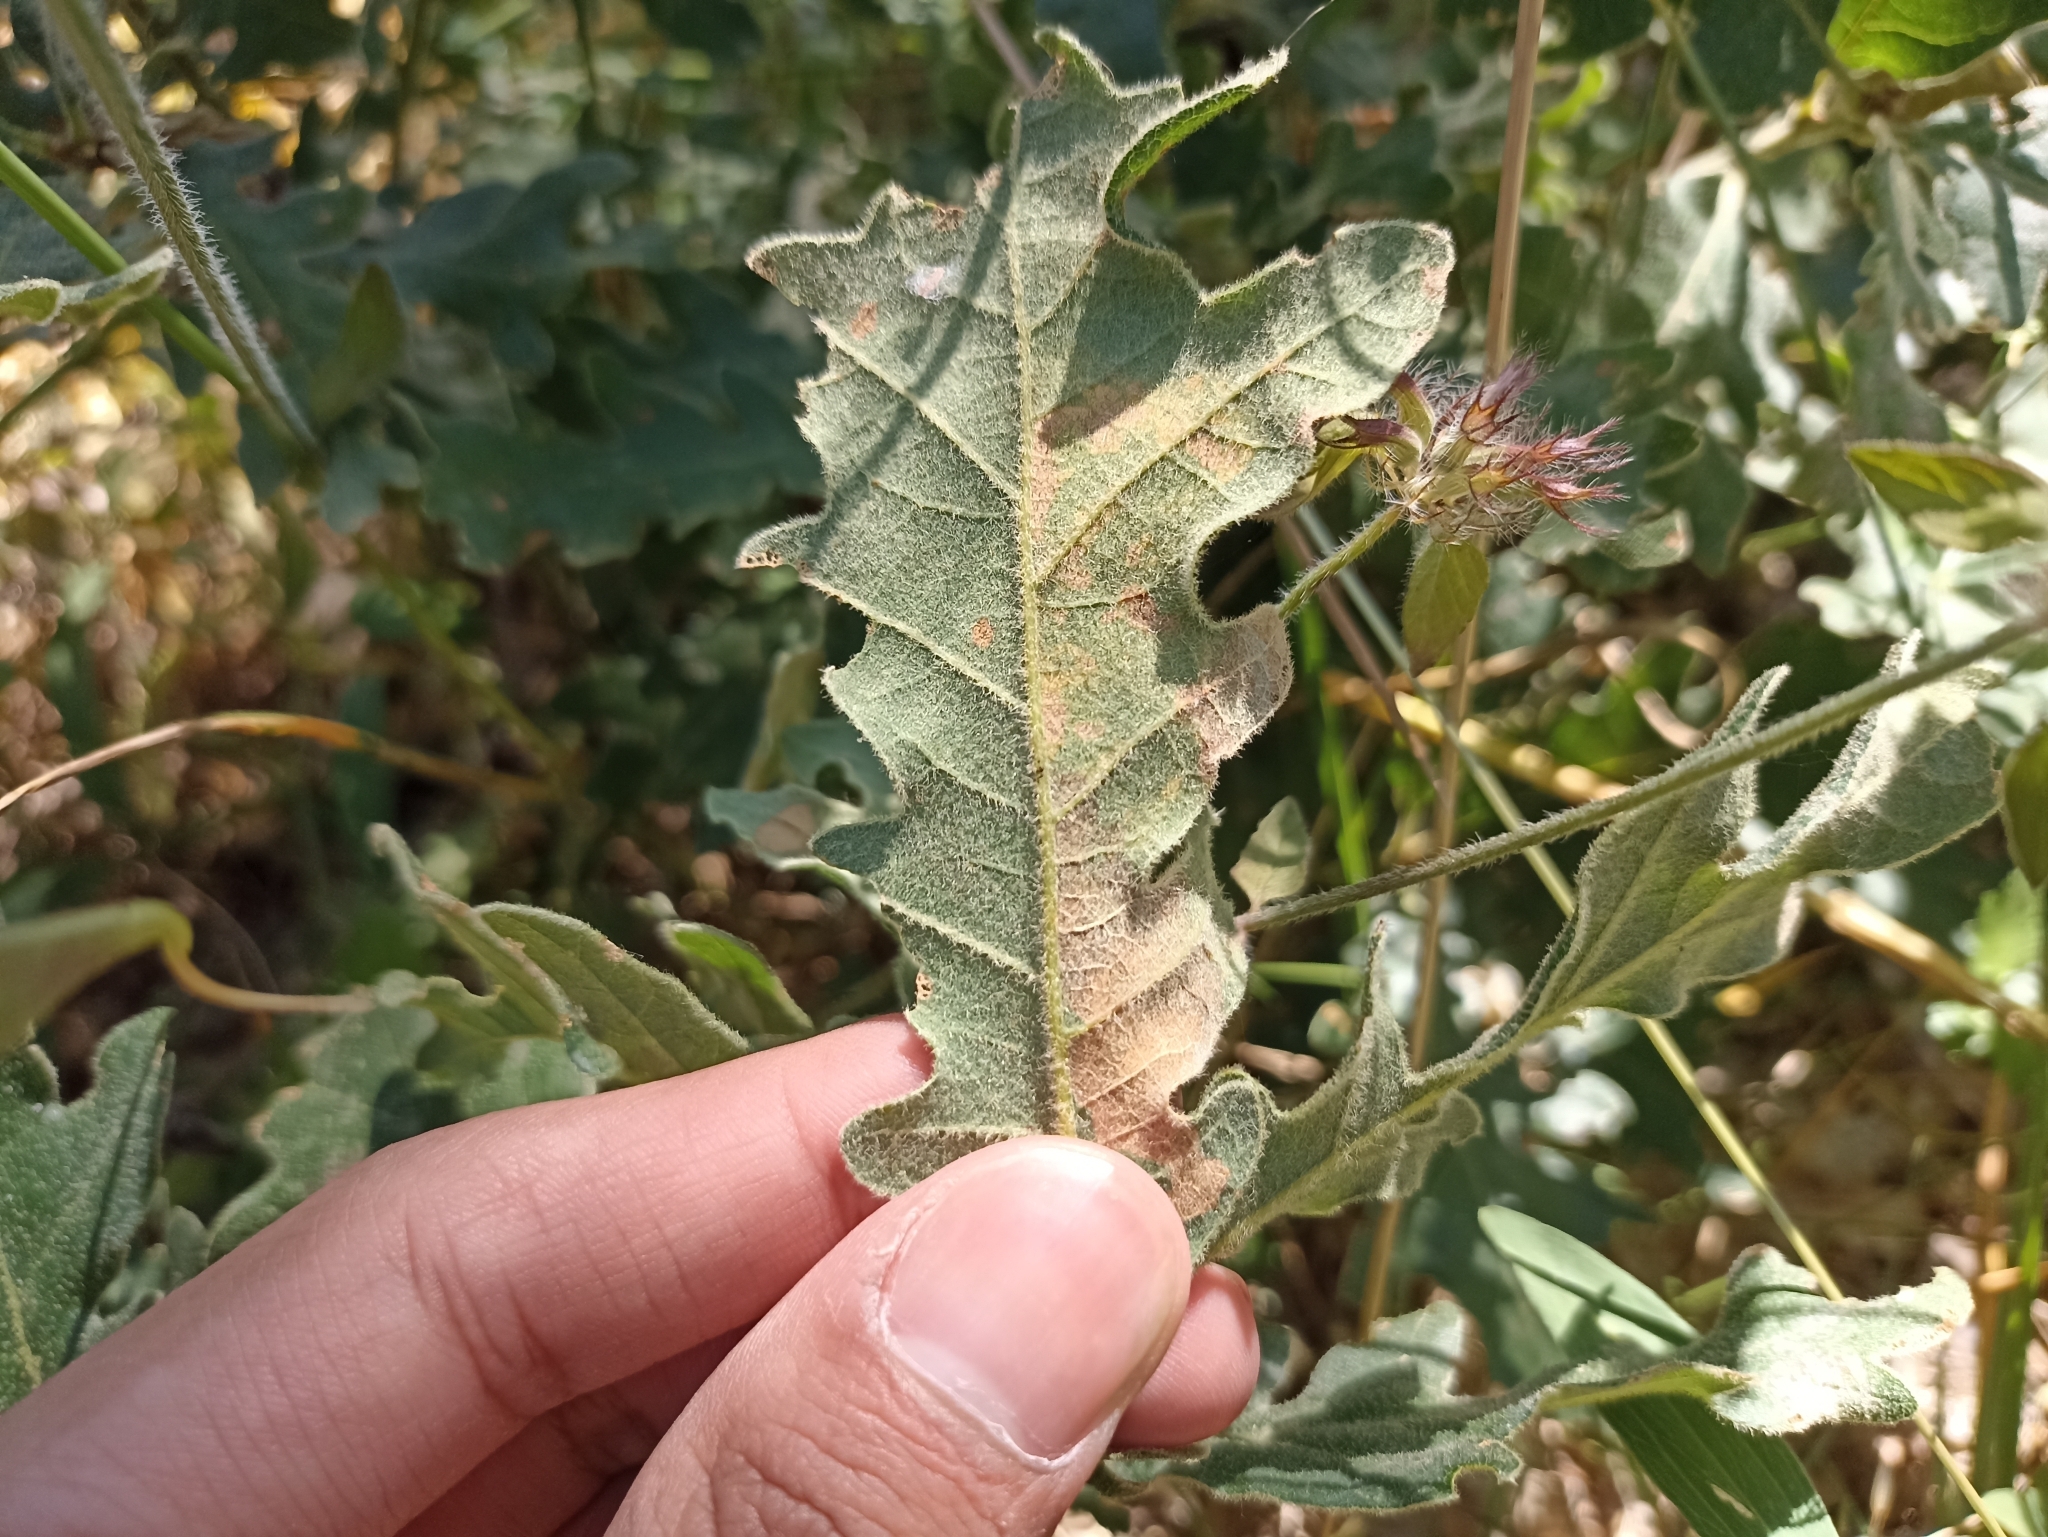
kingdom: Animalia
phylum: Arthropoda
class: Insecta
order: Hymenoptera
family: Tenthredinidae
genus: Profenusa
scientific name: Profenusa pygmaea
